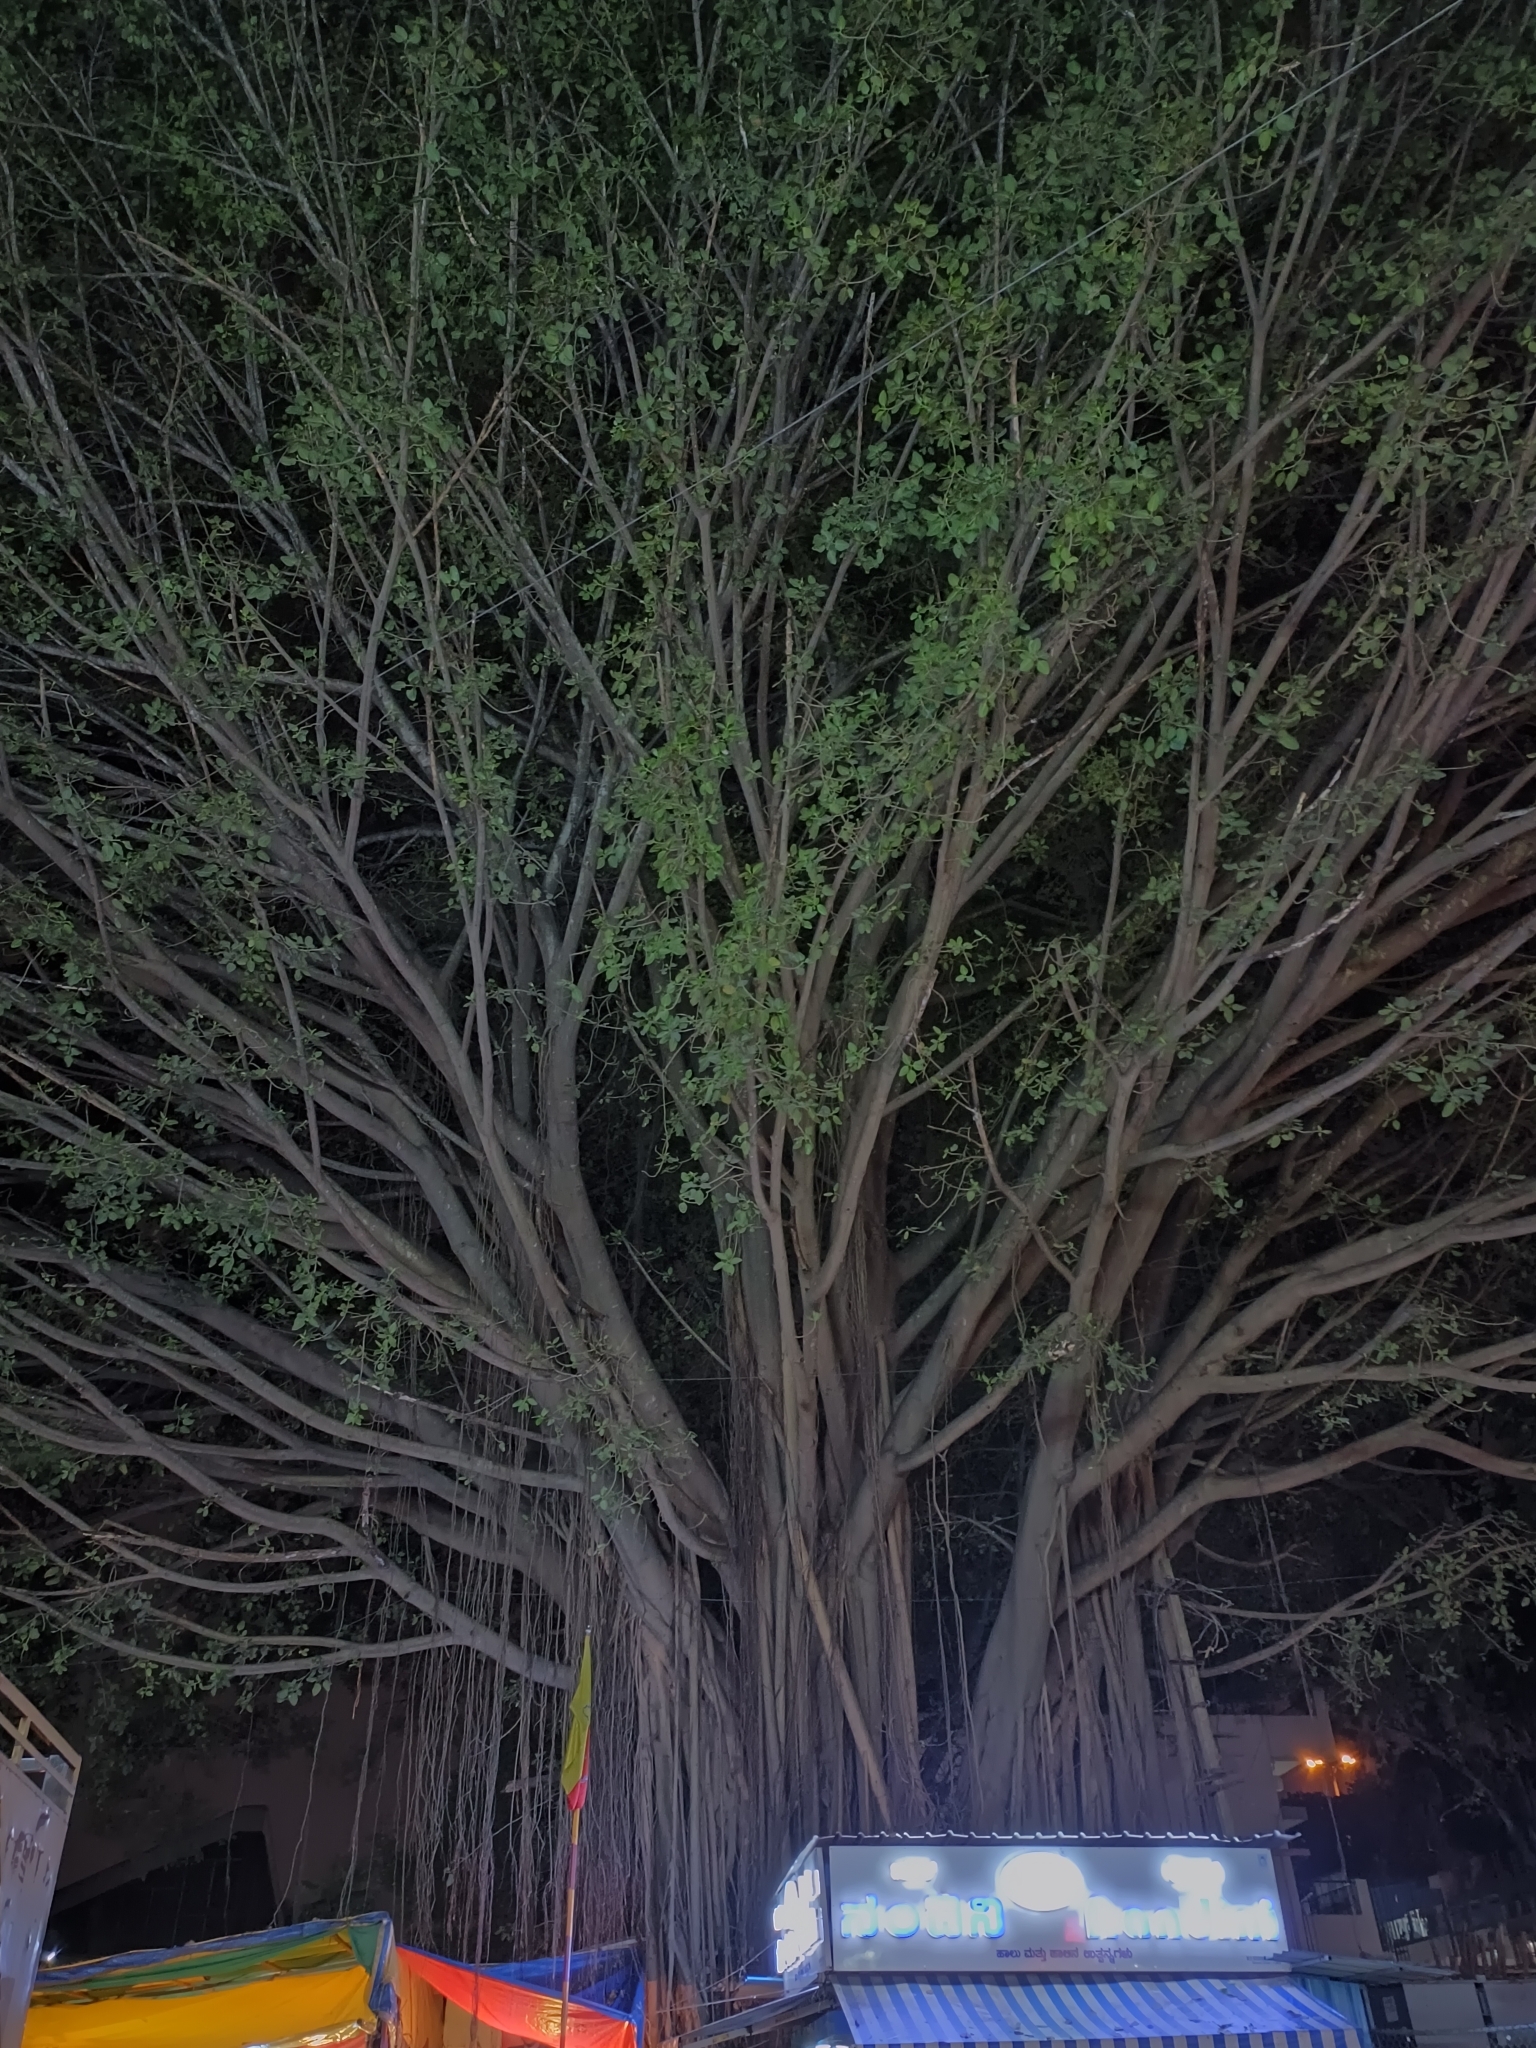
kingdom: Plantae
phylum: Tracheophyta
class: Magnoliopsida
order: Rosales
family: Moraceae
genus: Ficus
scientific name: Ficus benghalensis
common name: Indian banyan
